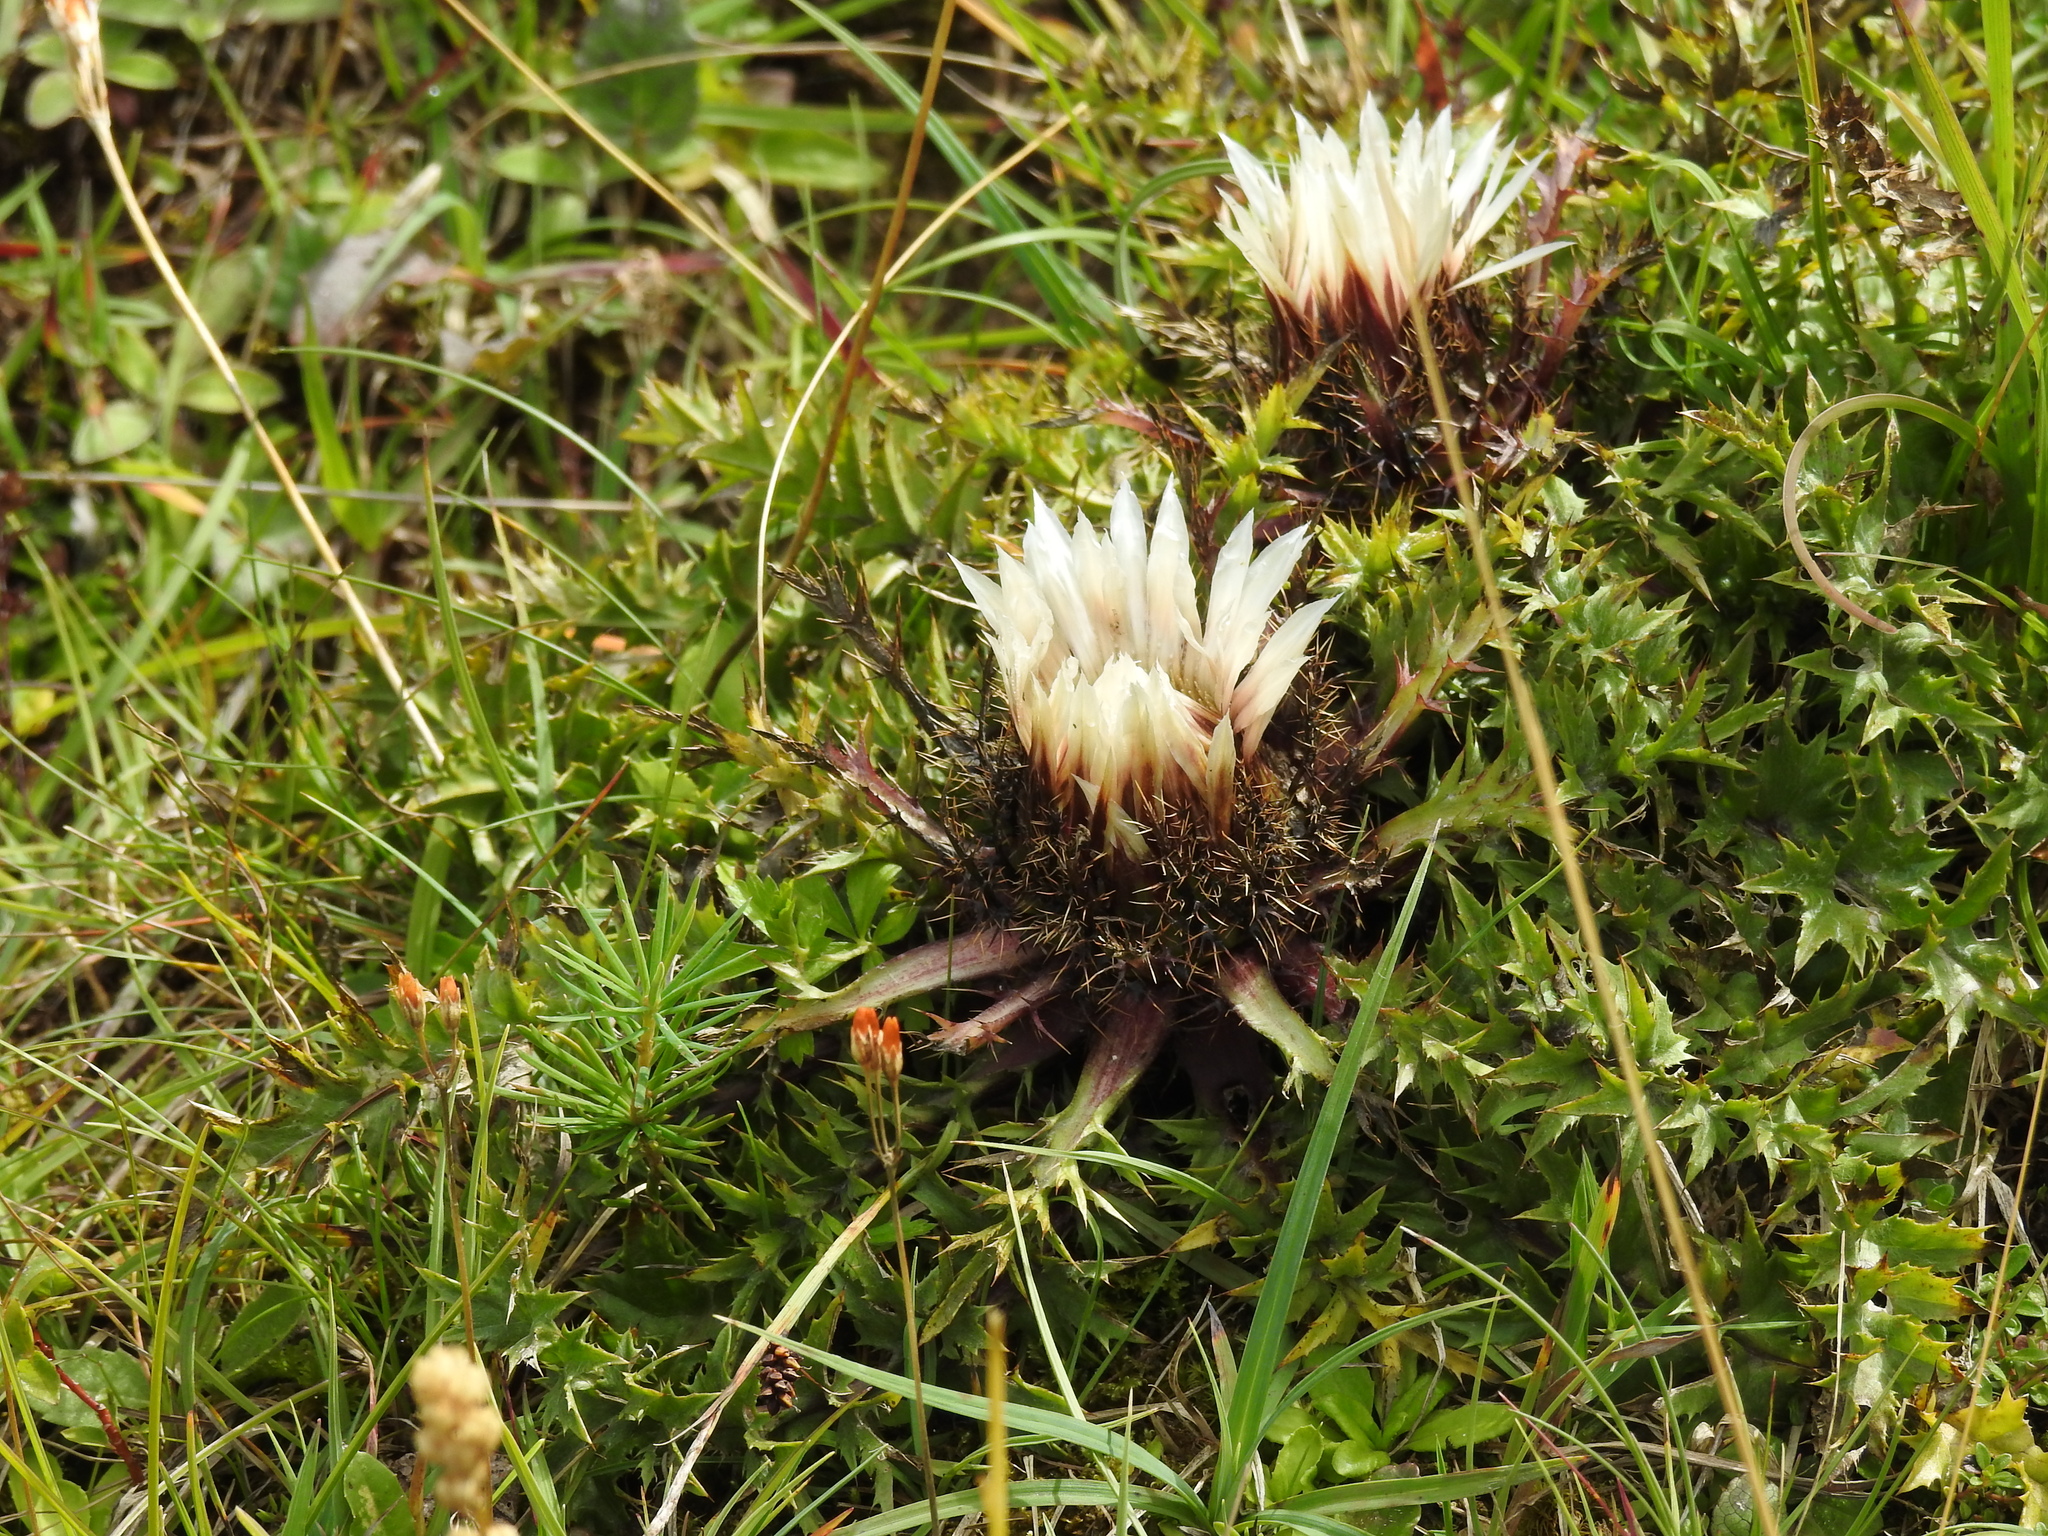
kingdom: Plantae
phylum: Tracheophyta
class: Magnoliopsida
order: Asterales
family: Asteraceae
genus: Carlina
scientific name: Carlina acaulis
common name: Stemless carline thistle
